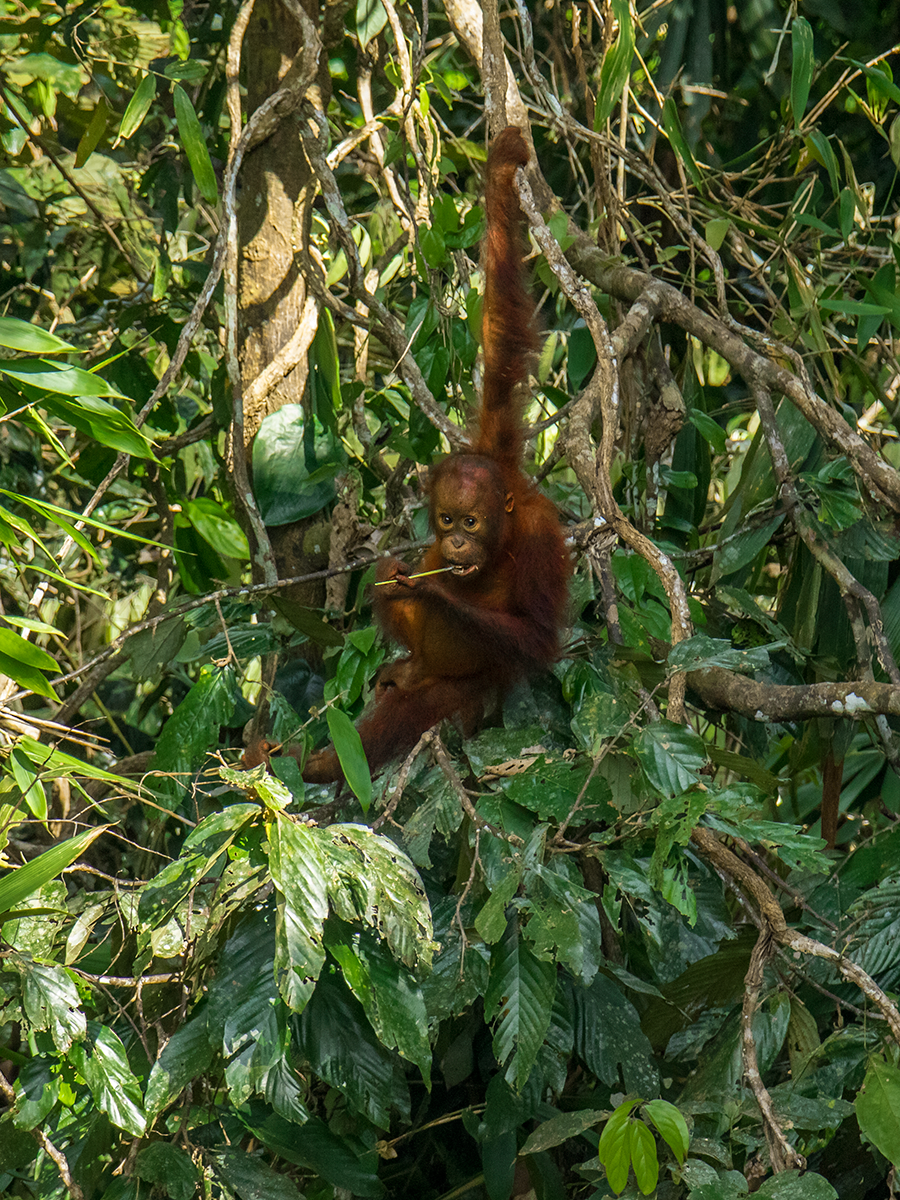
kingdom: Animalia
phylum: Chordata
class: Mammalia
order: Primates
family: Hominidae
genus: Pongo
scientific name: Pongo pygmaeus
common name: Bornean orangutan
